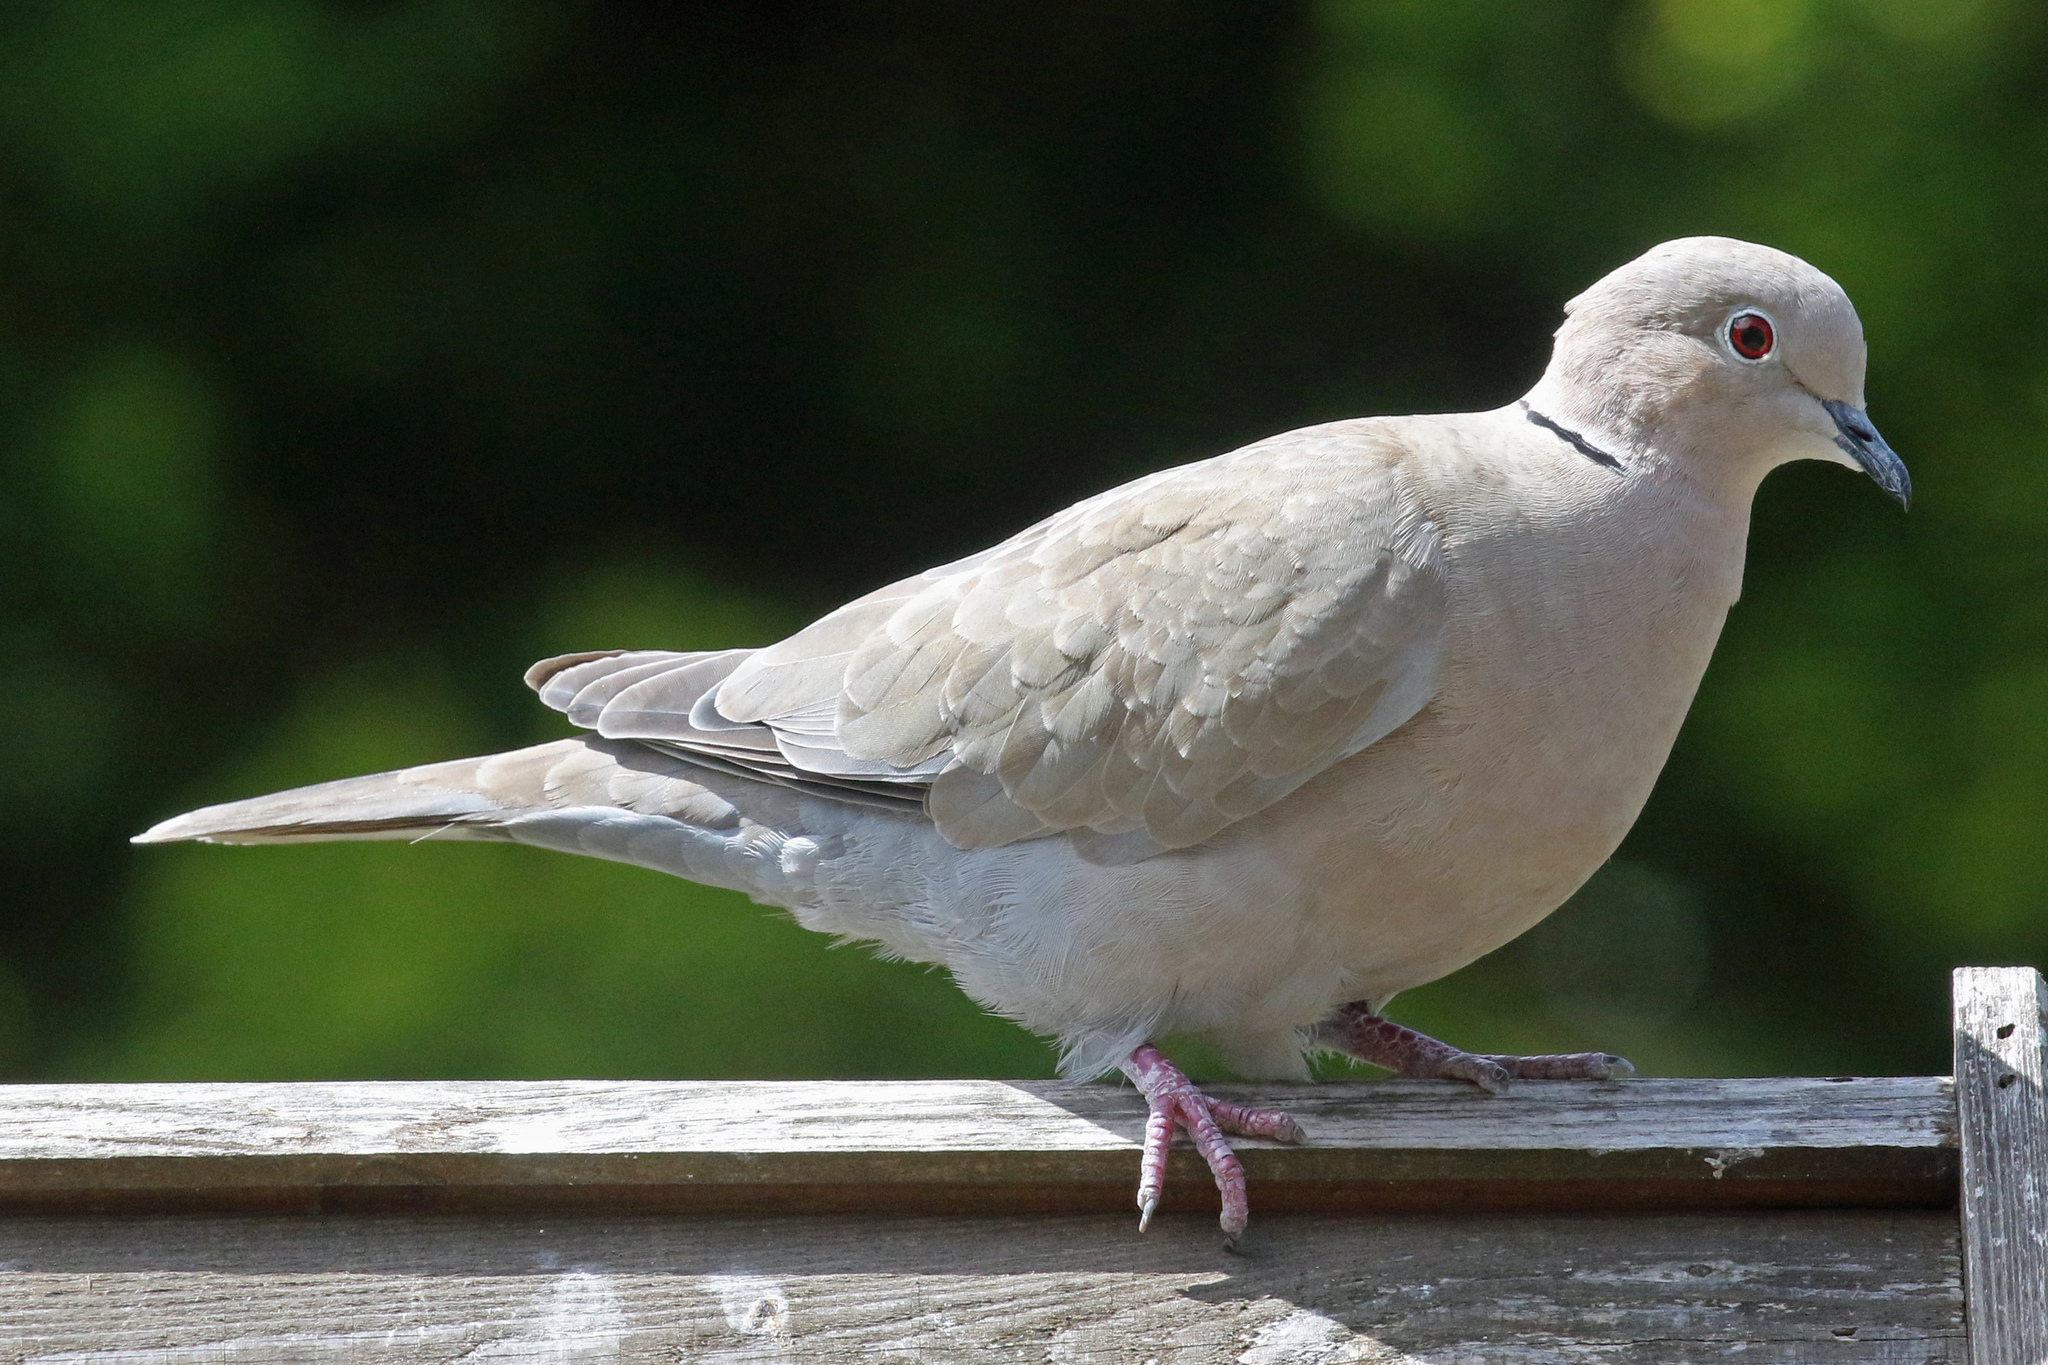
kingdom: Animalia
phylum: Chordata
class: Aves
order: Columbiformes
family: Columbidae
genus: Streptopelia
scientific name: Streptopelia decaocto
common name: Eurasian collared dove
